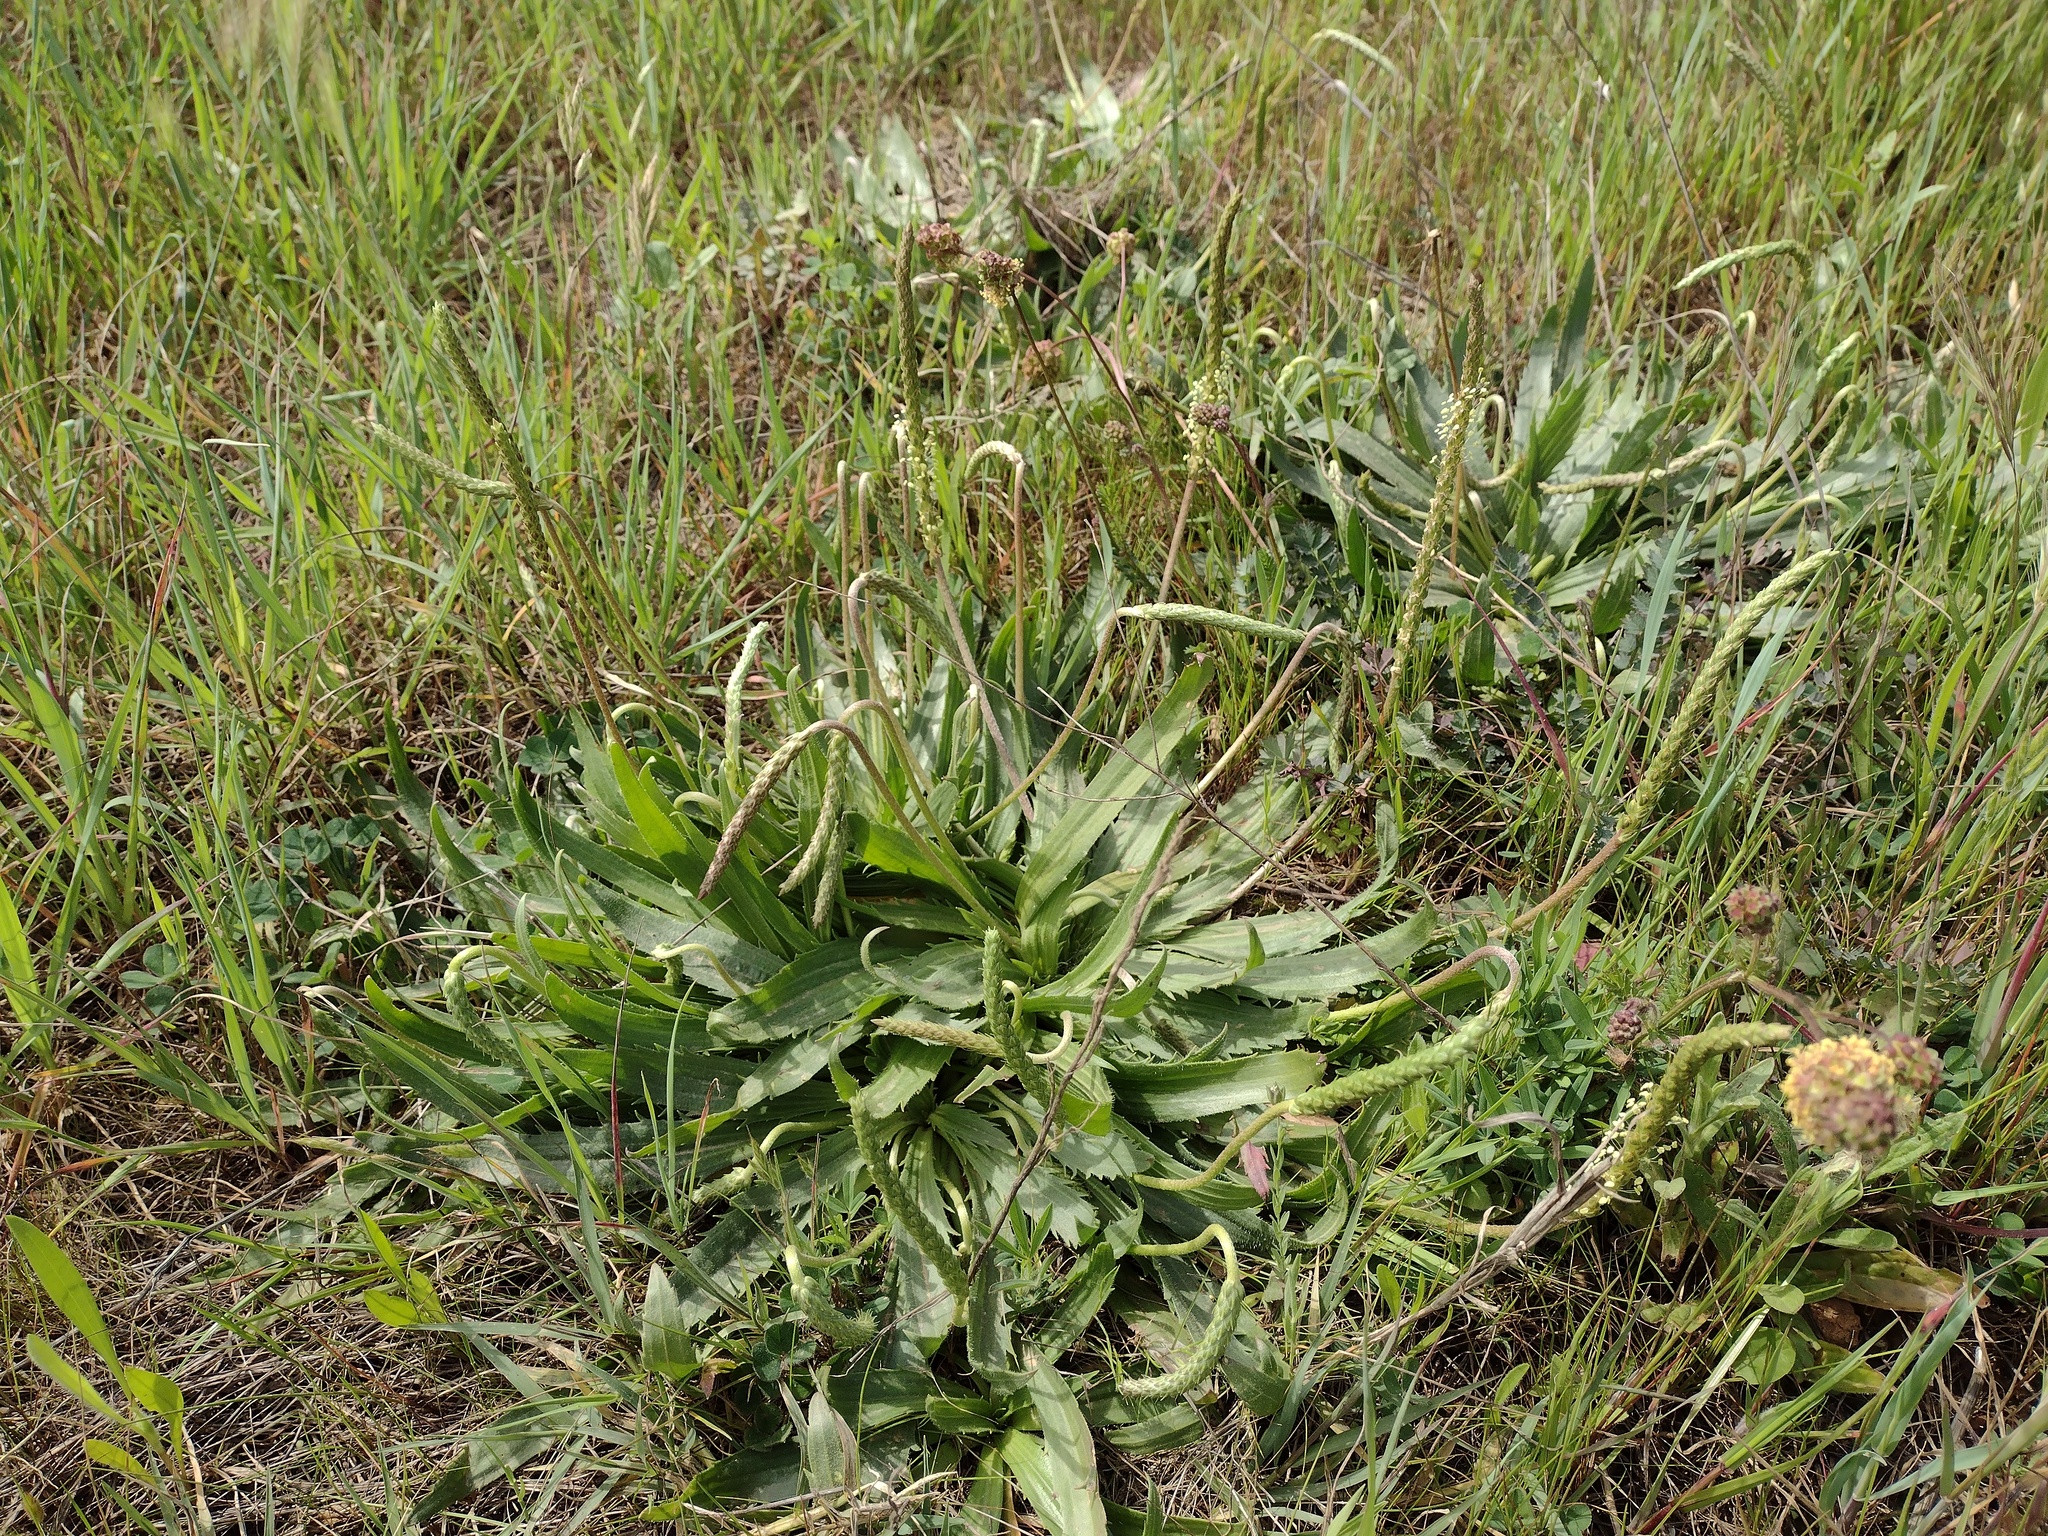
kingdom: Plantae
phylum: Tracheophyta
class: Magnoliopsida
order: Lamiales
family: Plantaginaceae
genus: Plantago
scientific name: Plantago serraria
